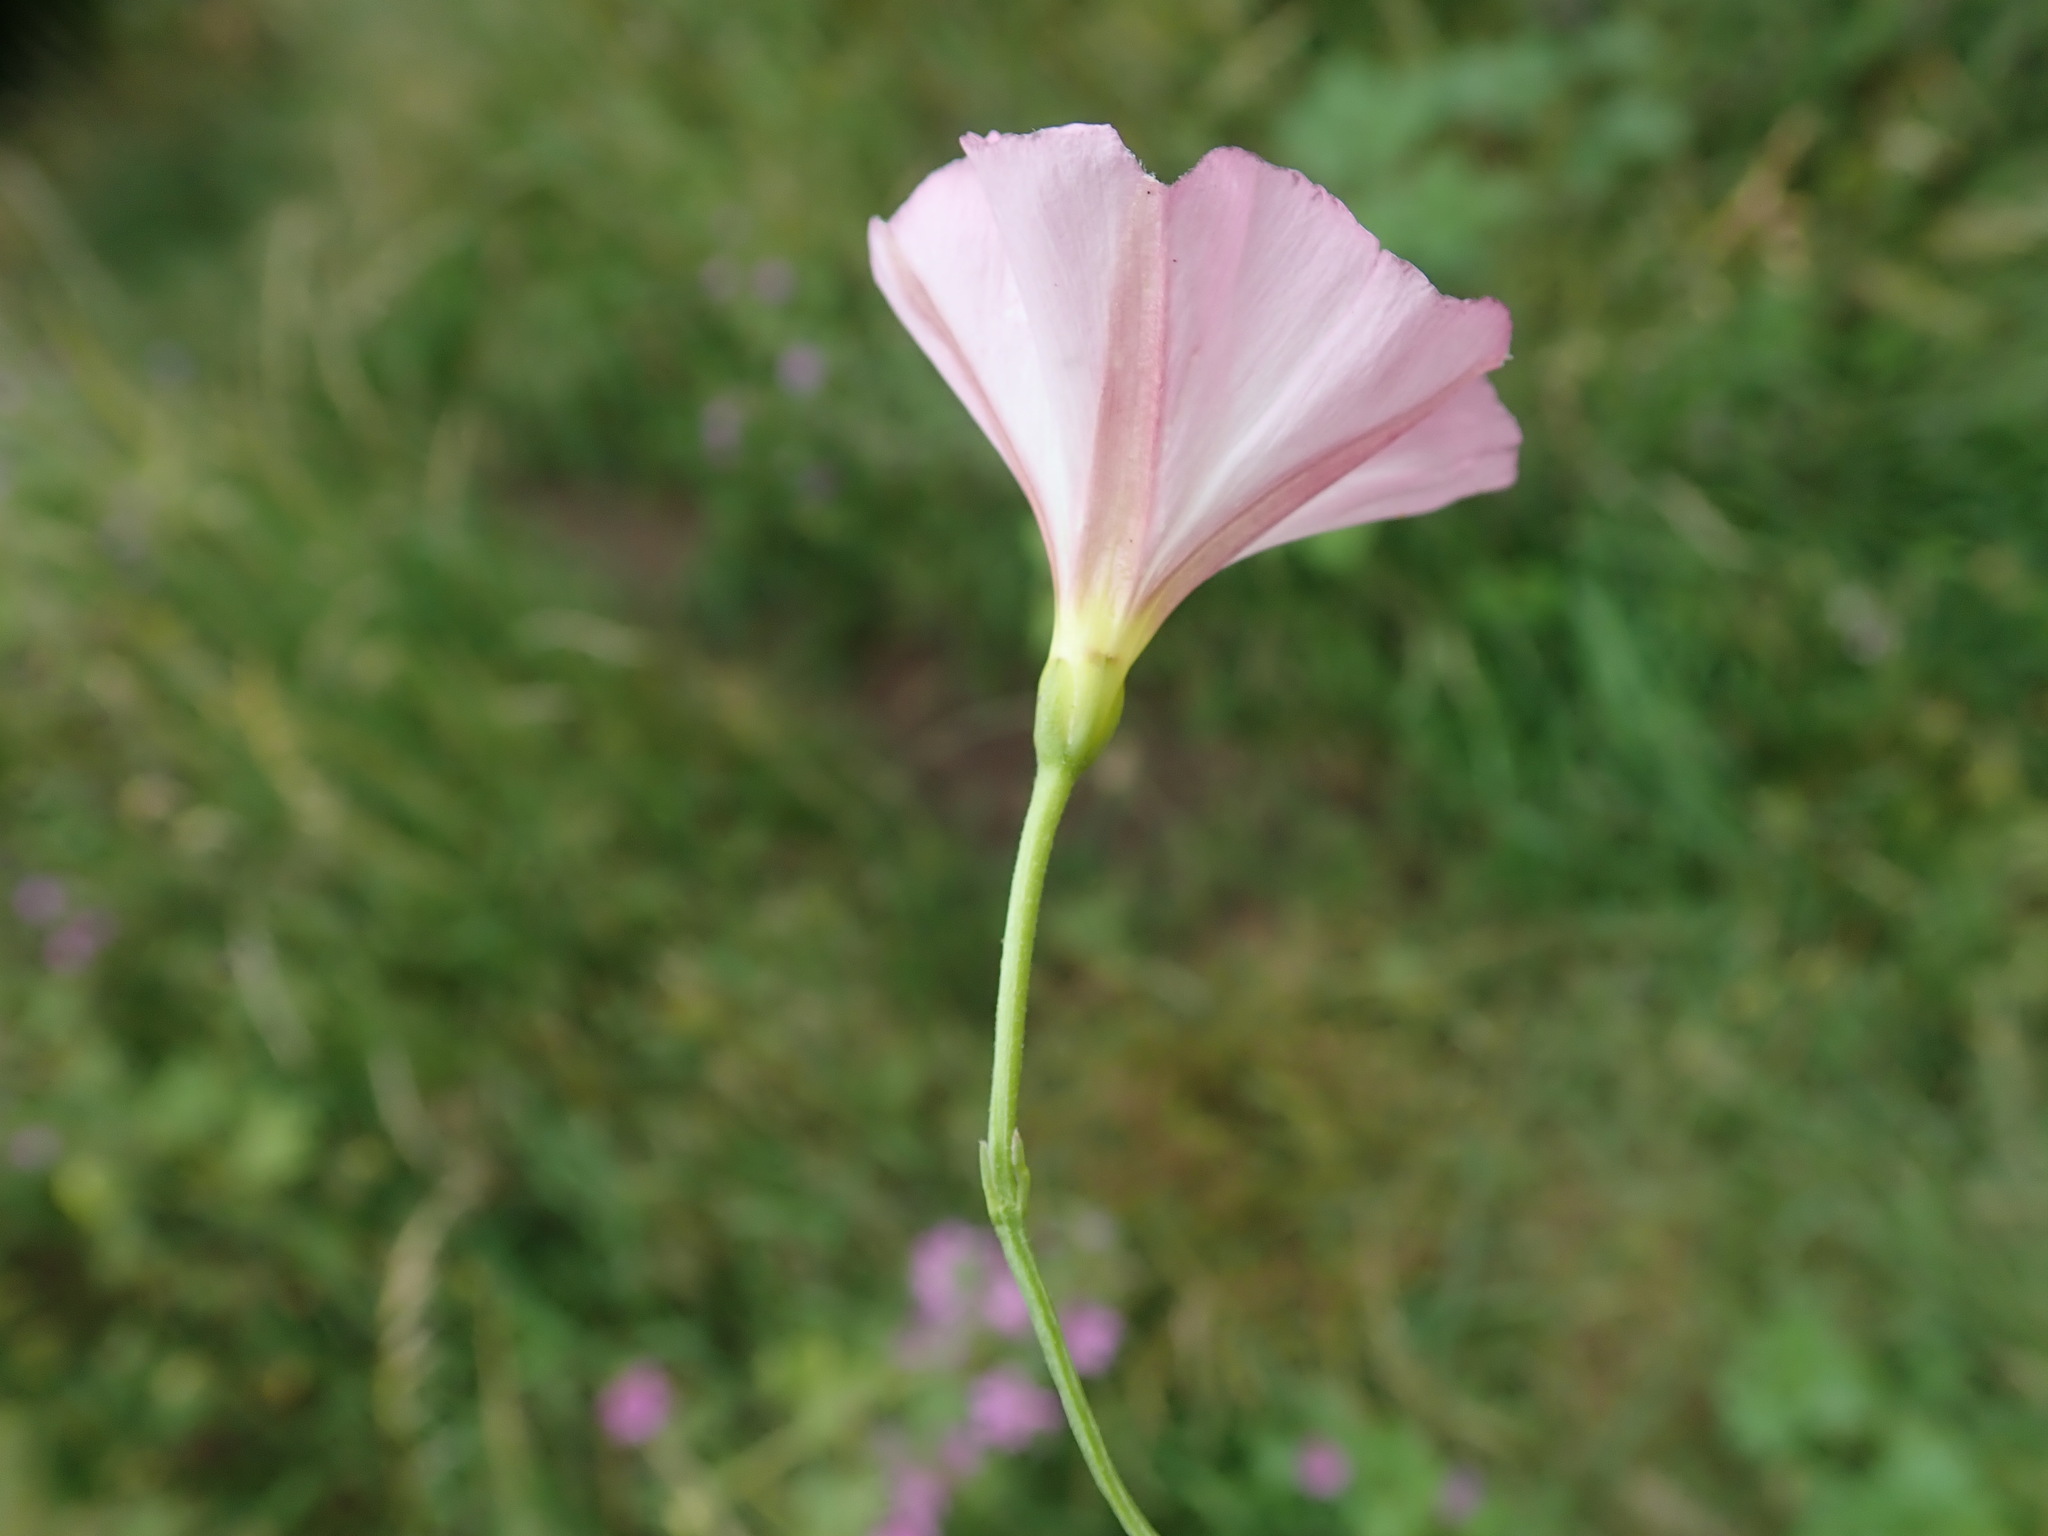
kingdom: Plantae
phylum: Tracheophyta
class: Magnoliopsida
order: Solanales
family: Convolvulaceae
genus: Convolvulus
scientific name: Convolvulus arvensis
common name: Field bindweed
